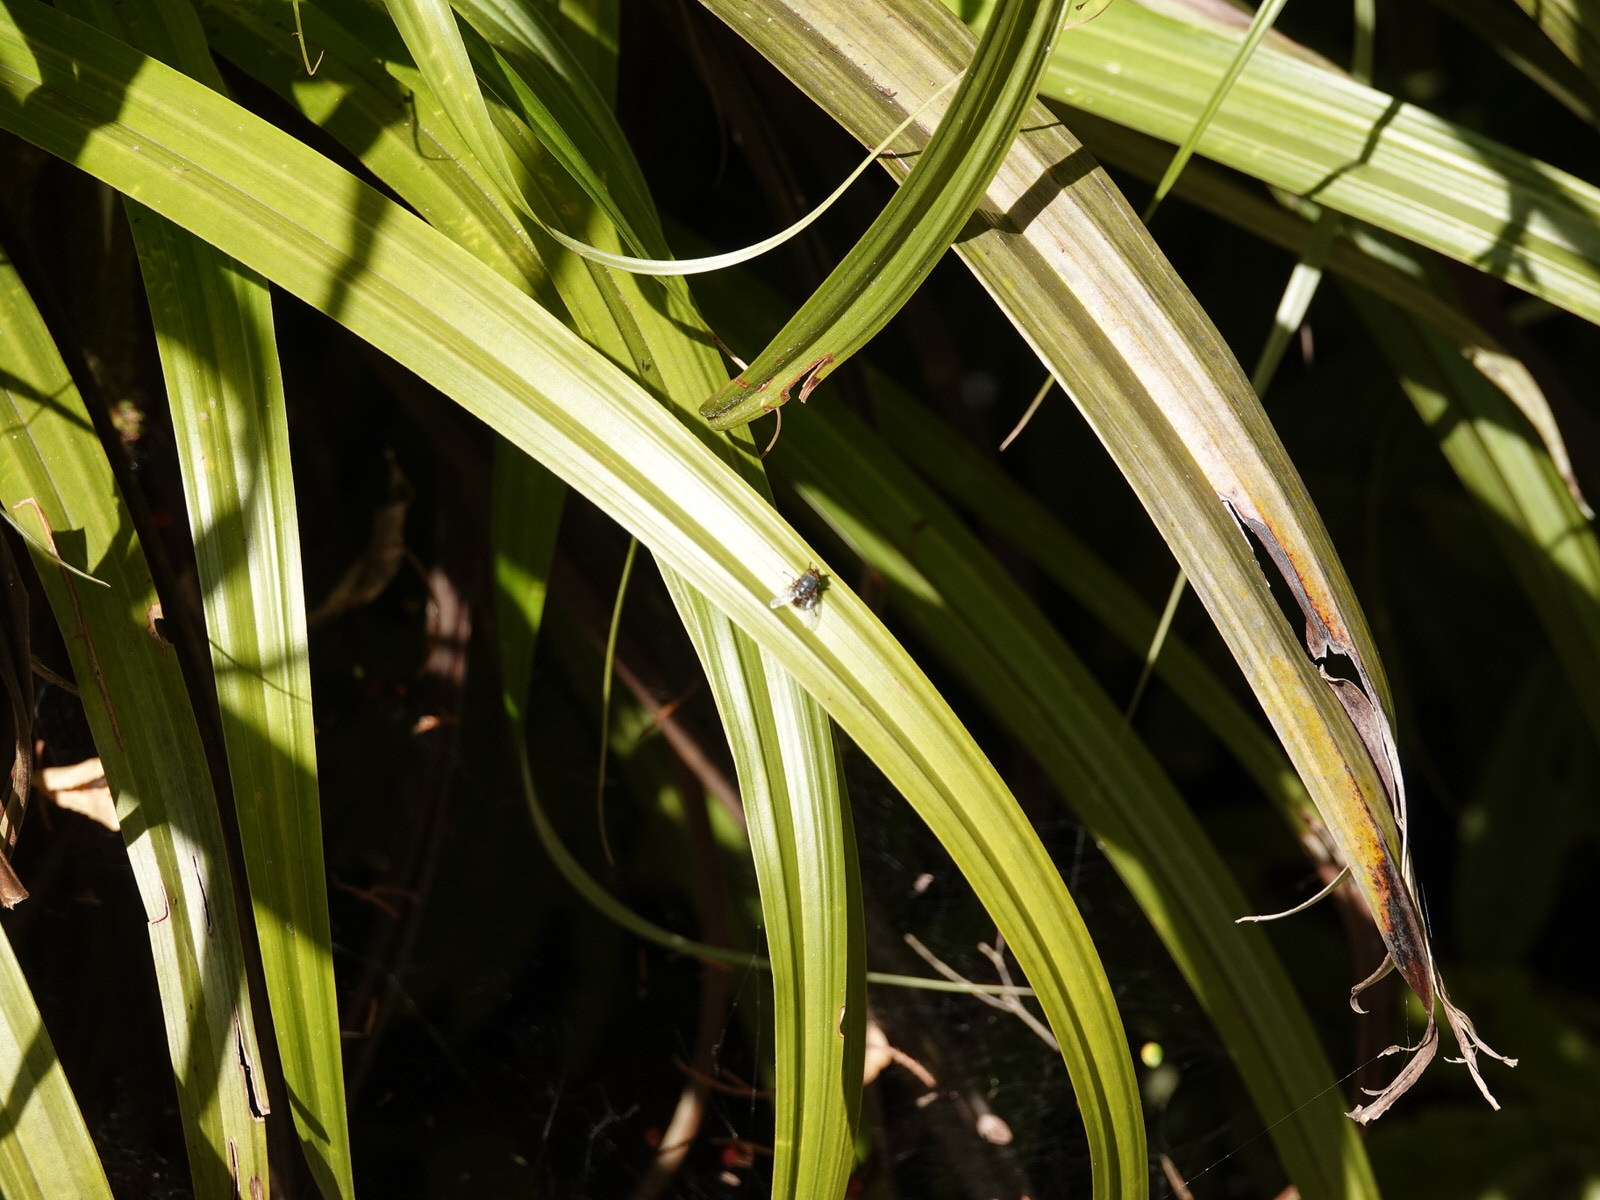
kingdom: Animalia
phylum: Arthropoda
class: Insecta
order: Diptera
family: Calliphoridae
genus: Calliphora
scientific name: Calliphora hilli
